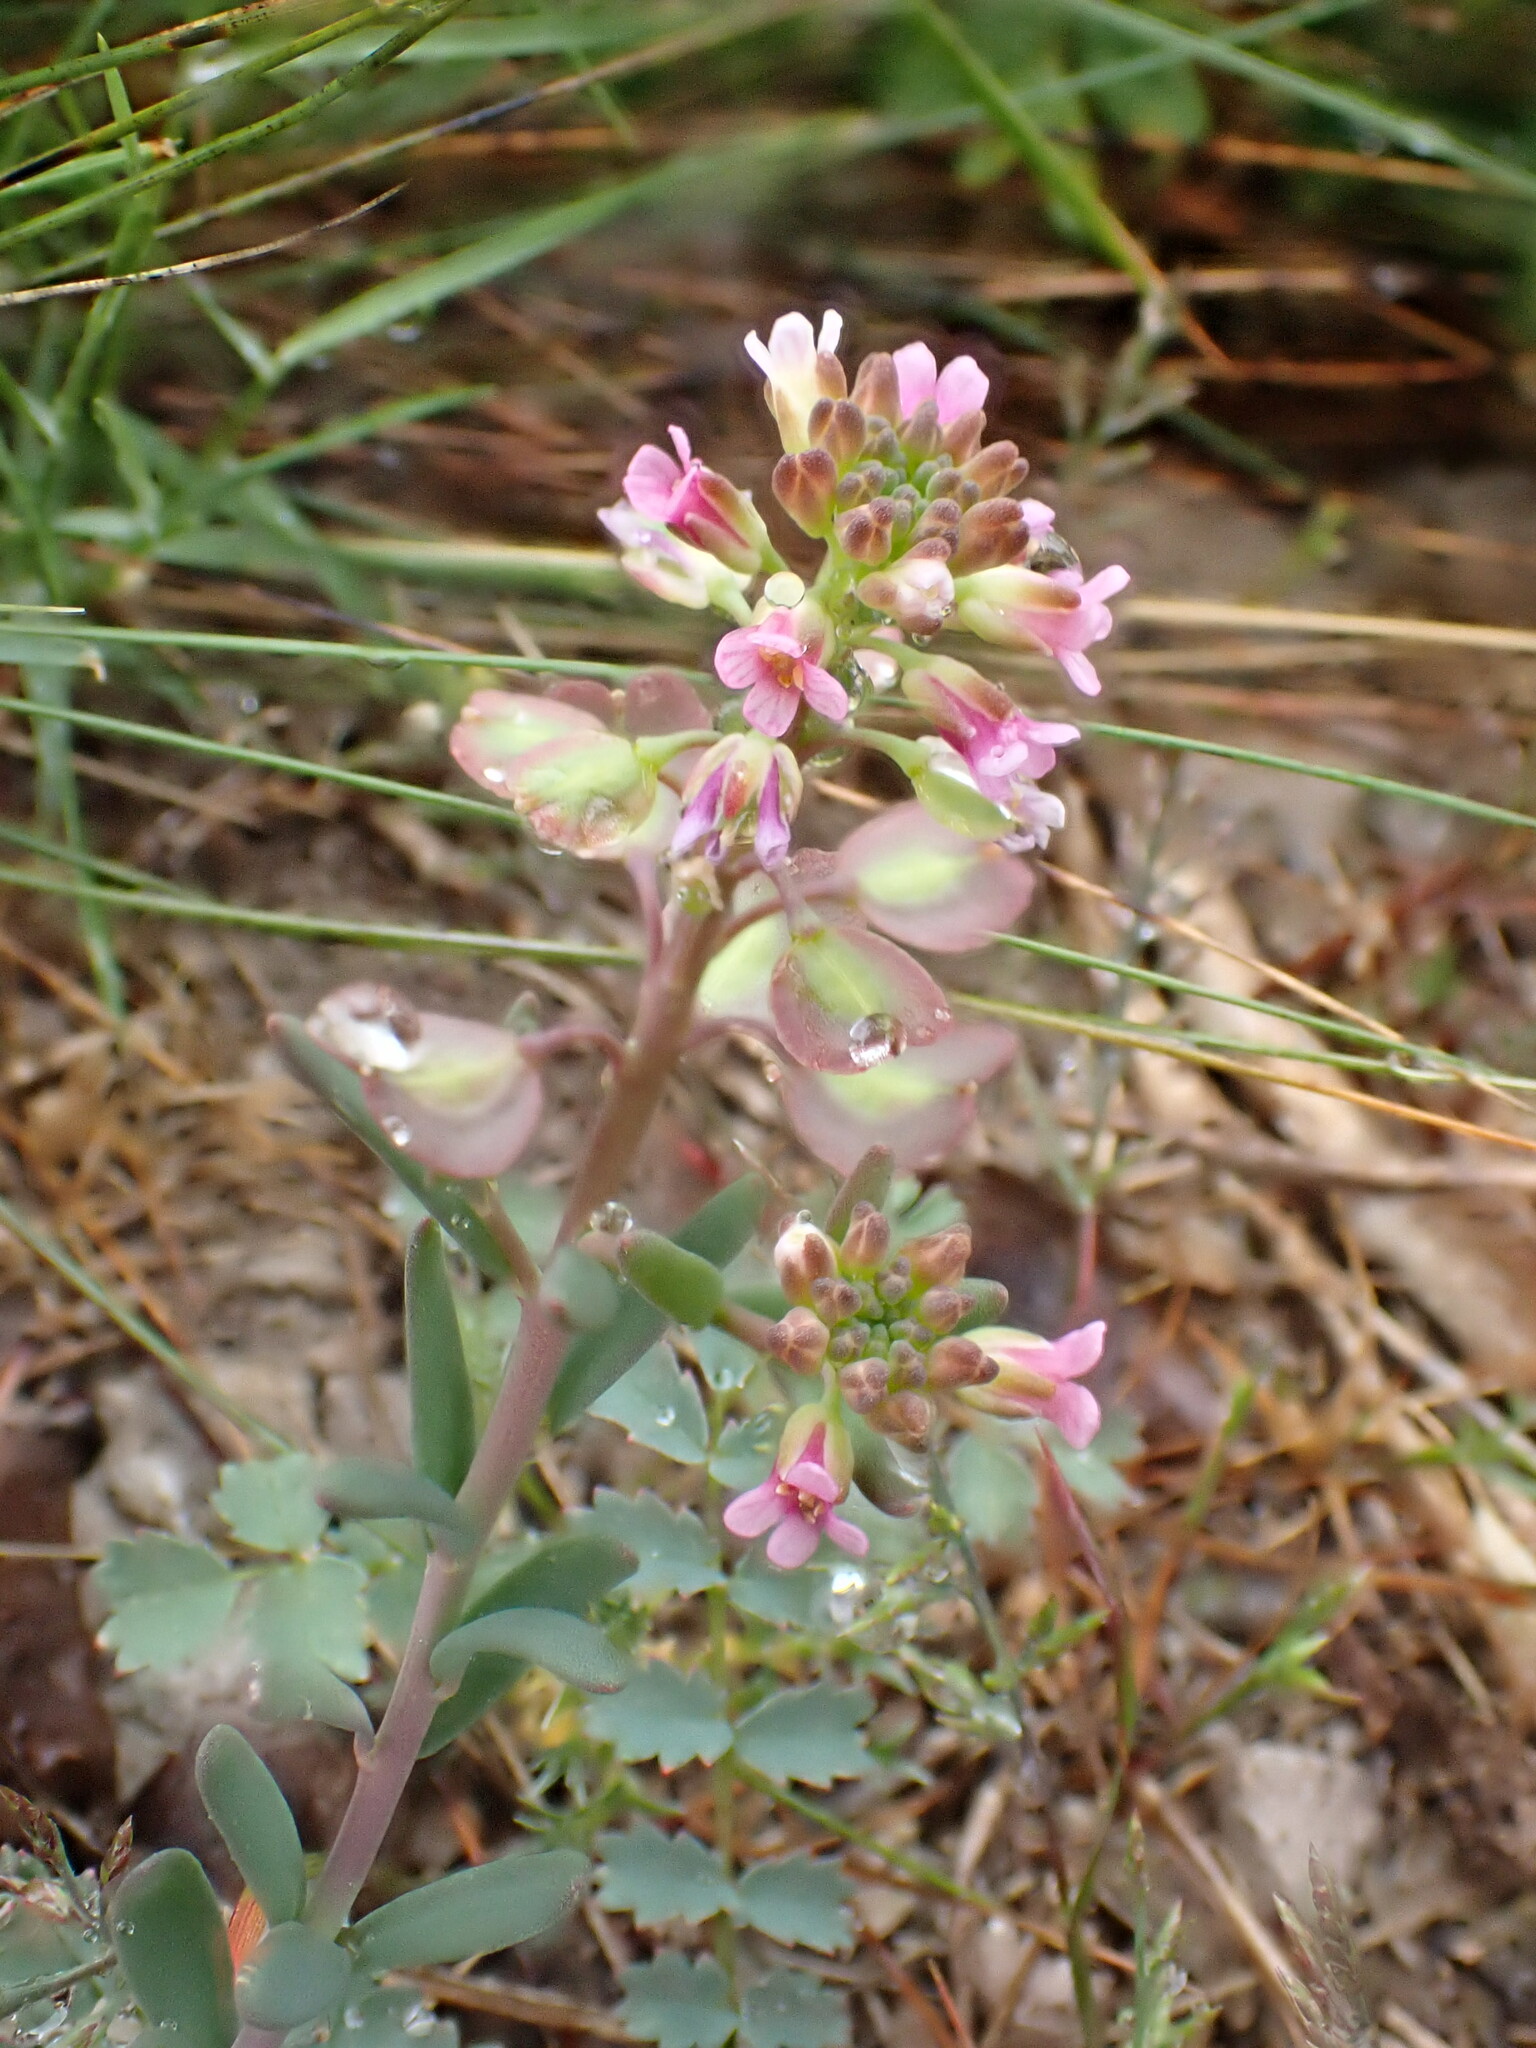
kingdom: Plantae
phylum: Tracheophyta
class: Magnoliopsida
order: Brassicales
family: Brassicaceae
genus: Aethionema
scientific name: Aethionema saxatile
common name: Burnt candytuft
